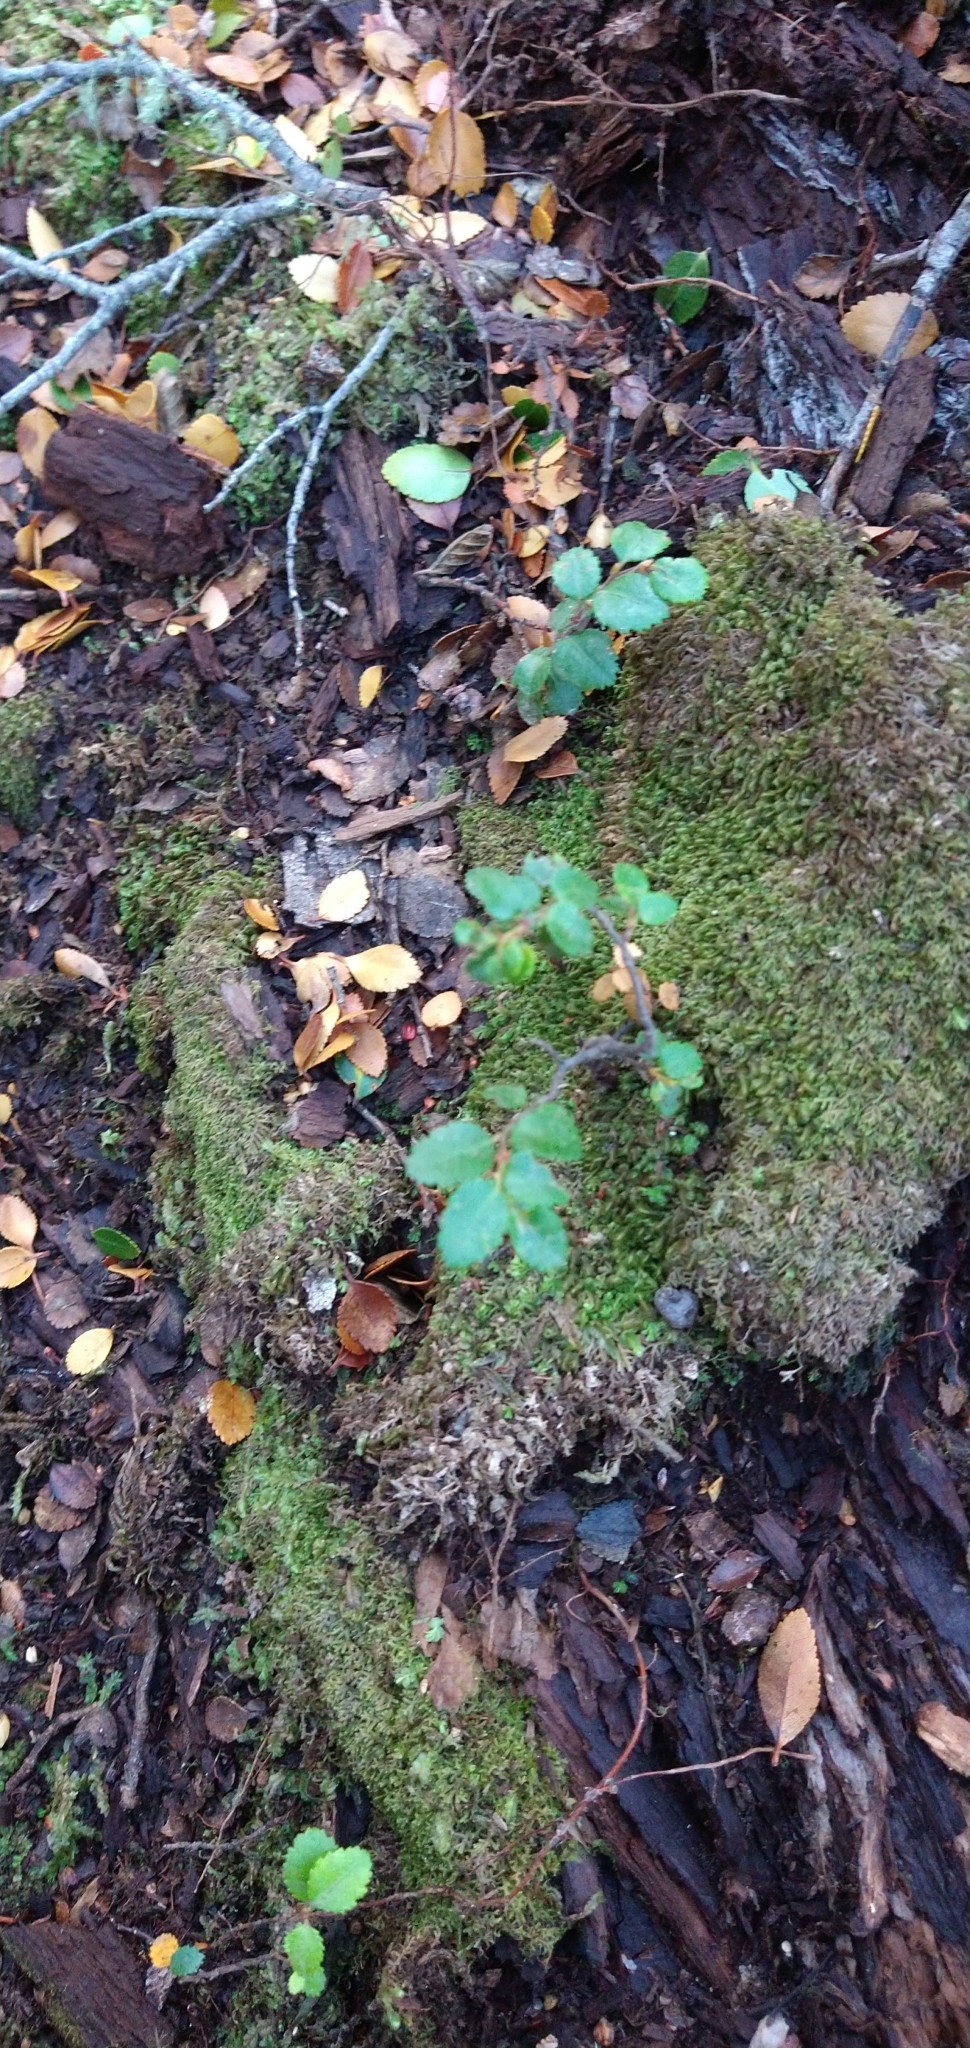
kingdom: Plantae
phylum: Tracheophyta
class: Magnoliopsida
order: Fagales
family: Nothofagaceae
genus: Nothofagus
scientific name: Nothofagus betuloides
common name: Magellan's beech
